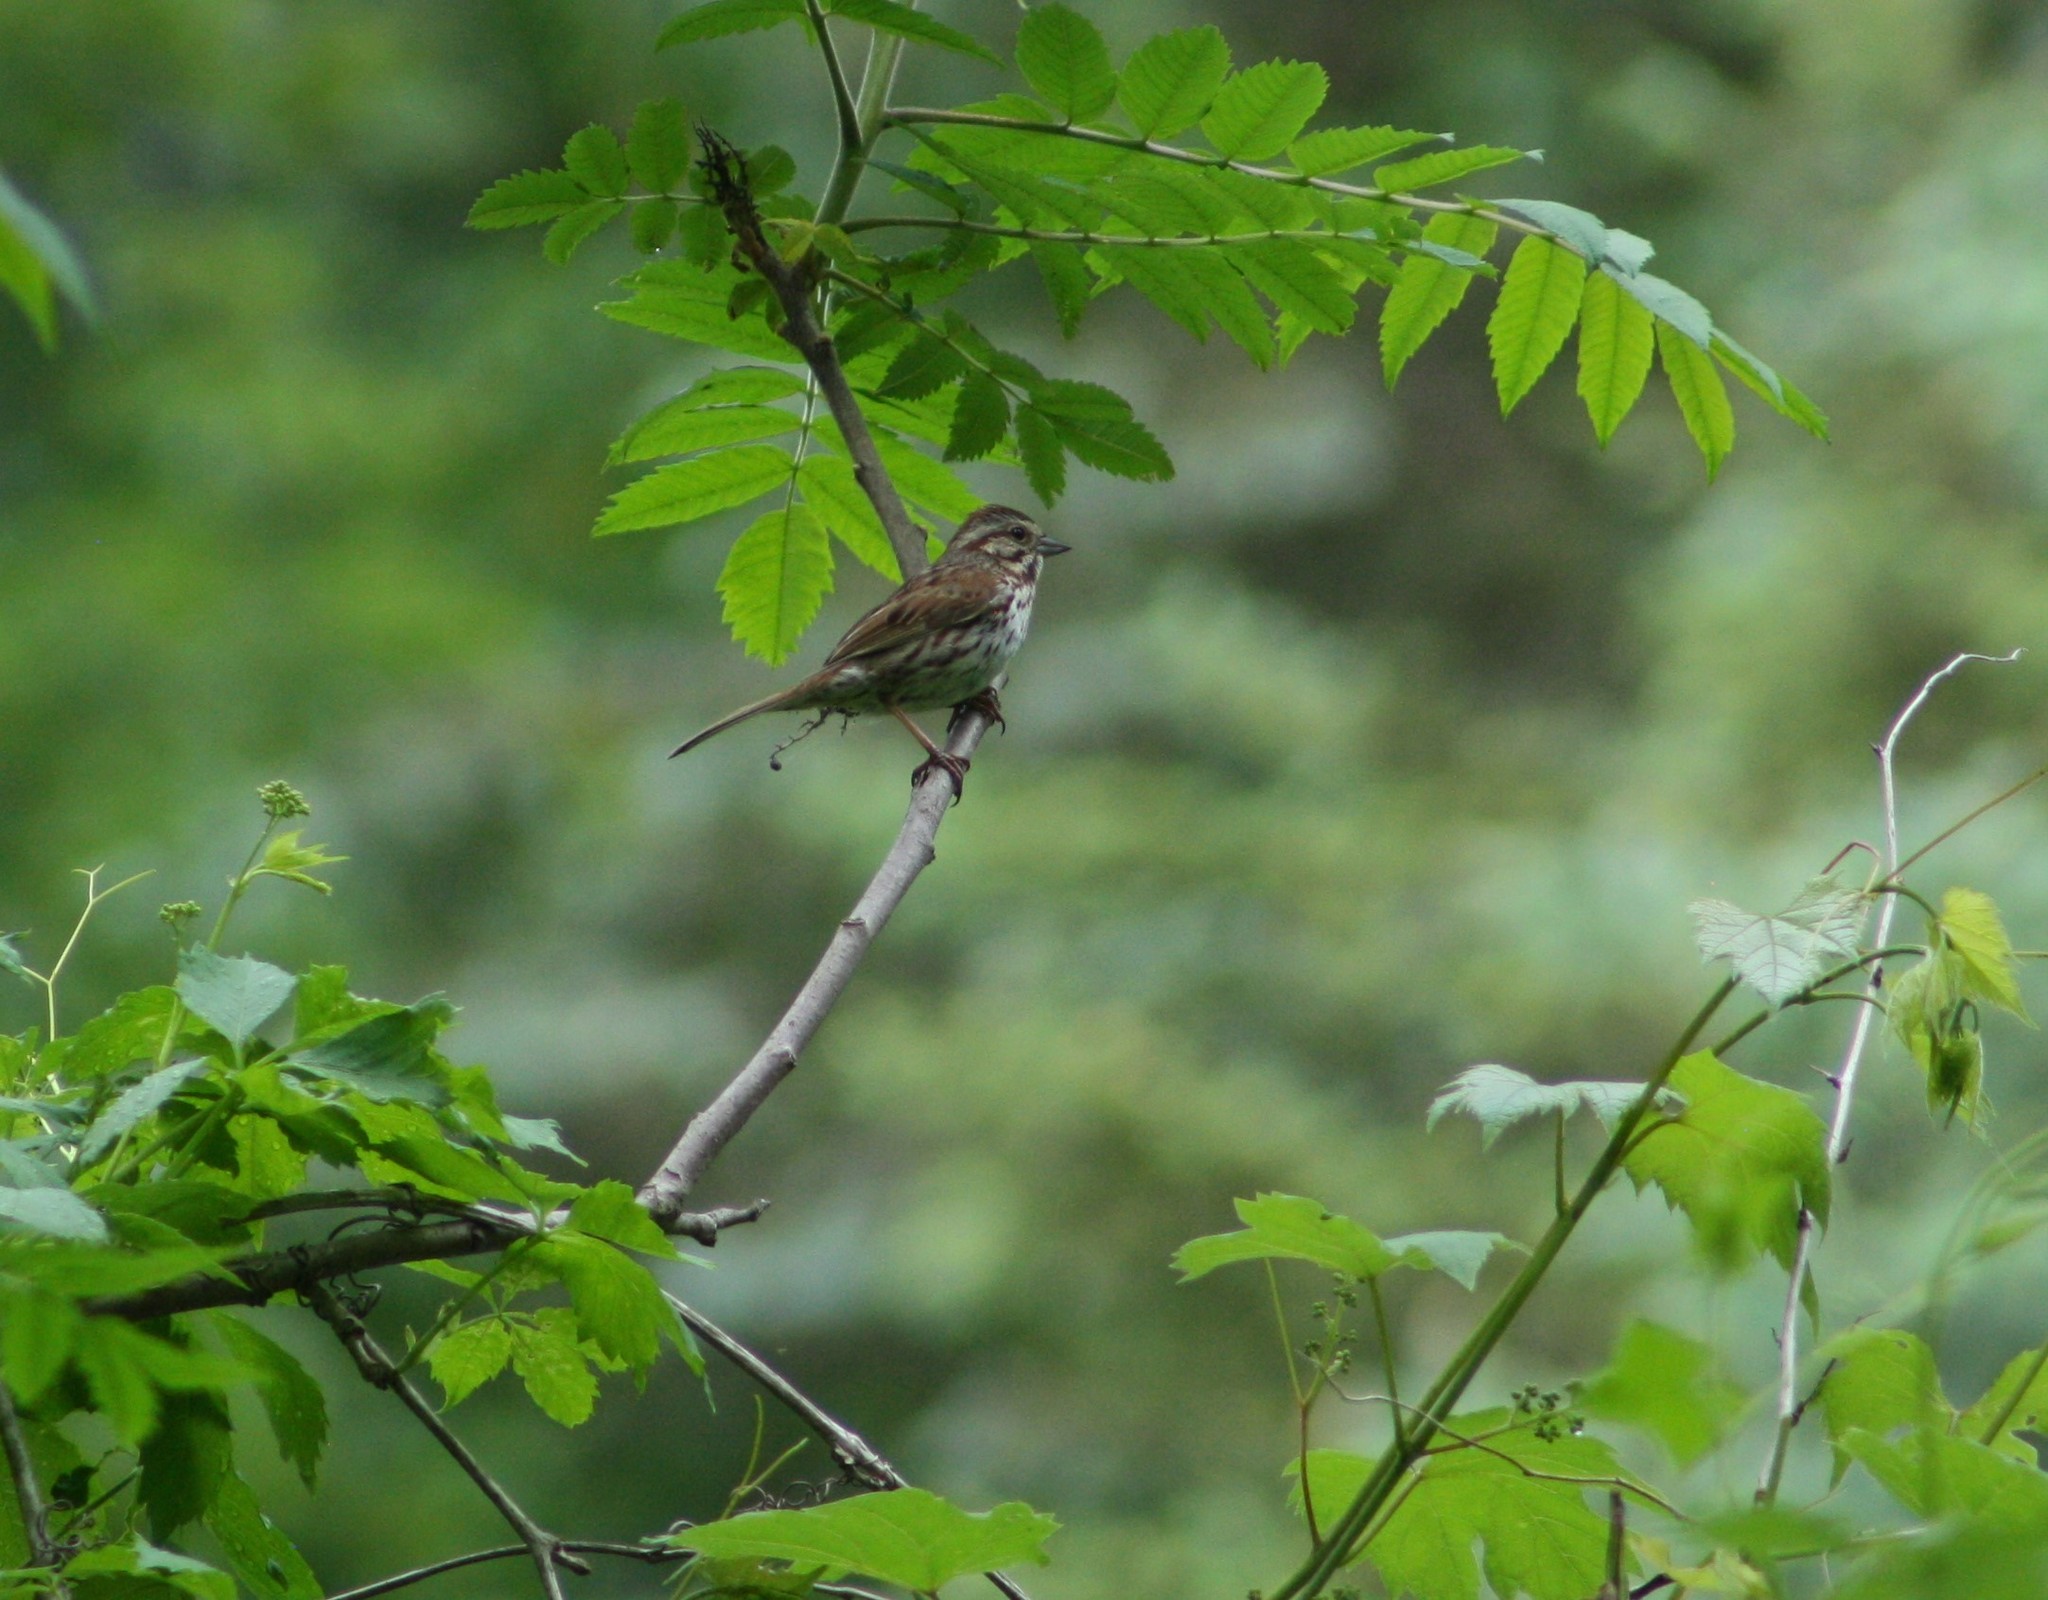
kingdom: Animalia
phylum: Chordata
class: Aves
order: Passeriformes
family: Passerellidae
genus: Melospiza
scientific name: Melospiza melodia
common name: Song sparrow
